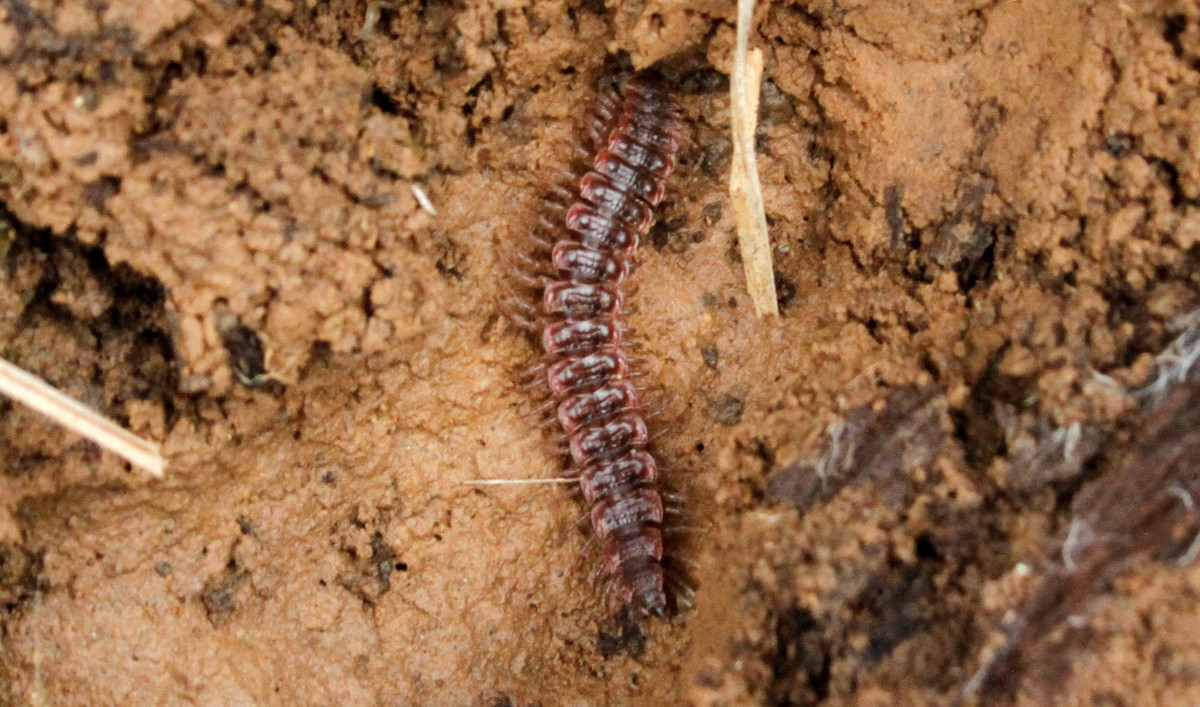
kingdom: Animalia
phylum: Arthropoda
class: Diplopoda
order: Polydesmida
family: Polydesmidae
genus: Pseudopolydesmus
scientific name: Pseudopolydesmus serratus
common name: Common pink flat-back millipede
